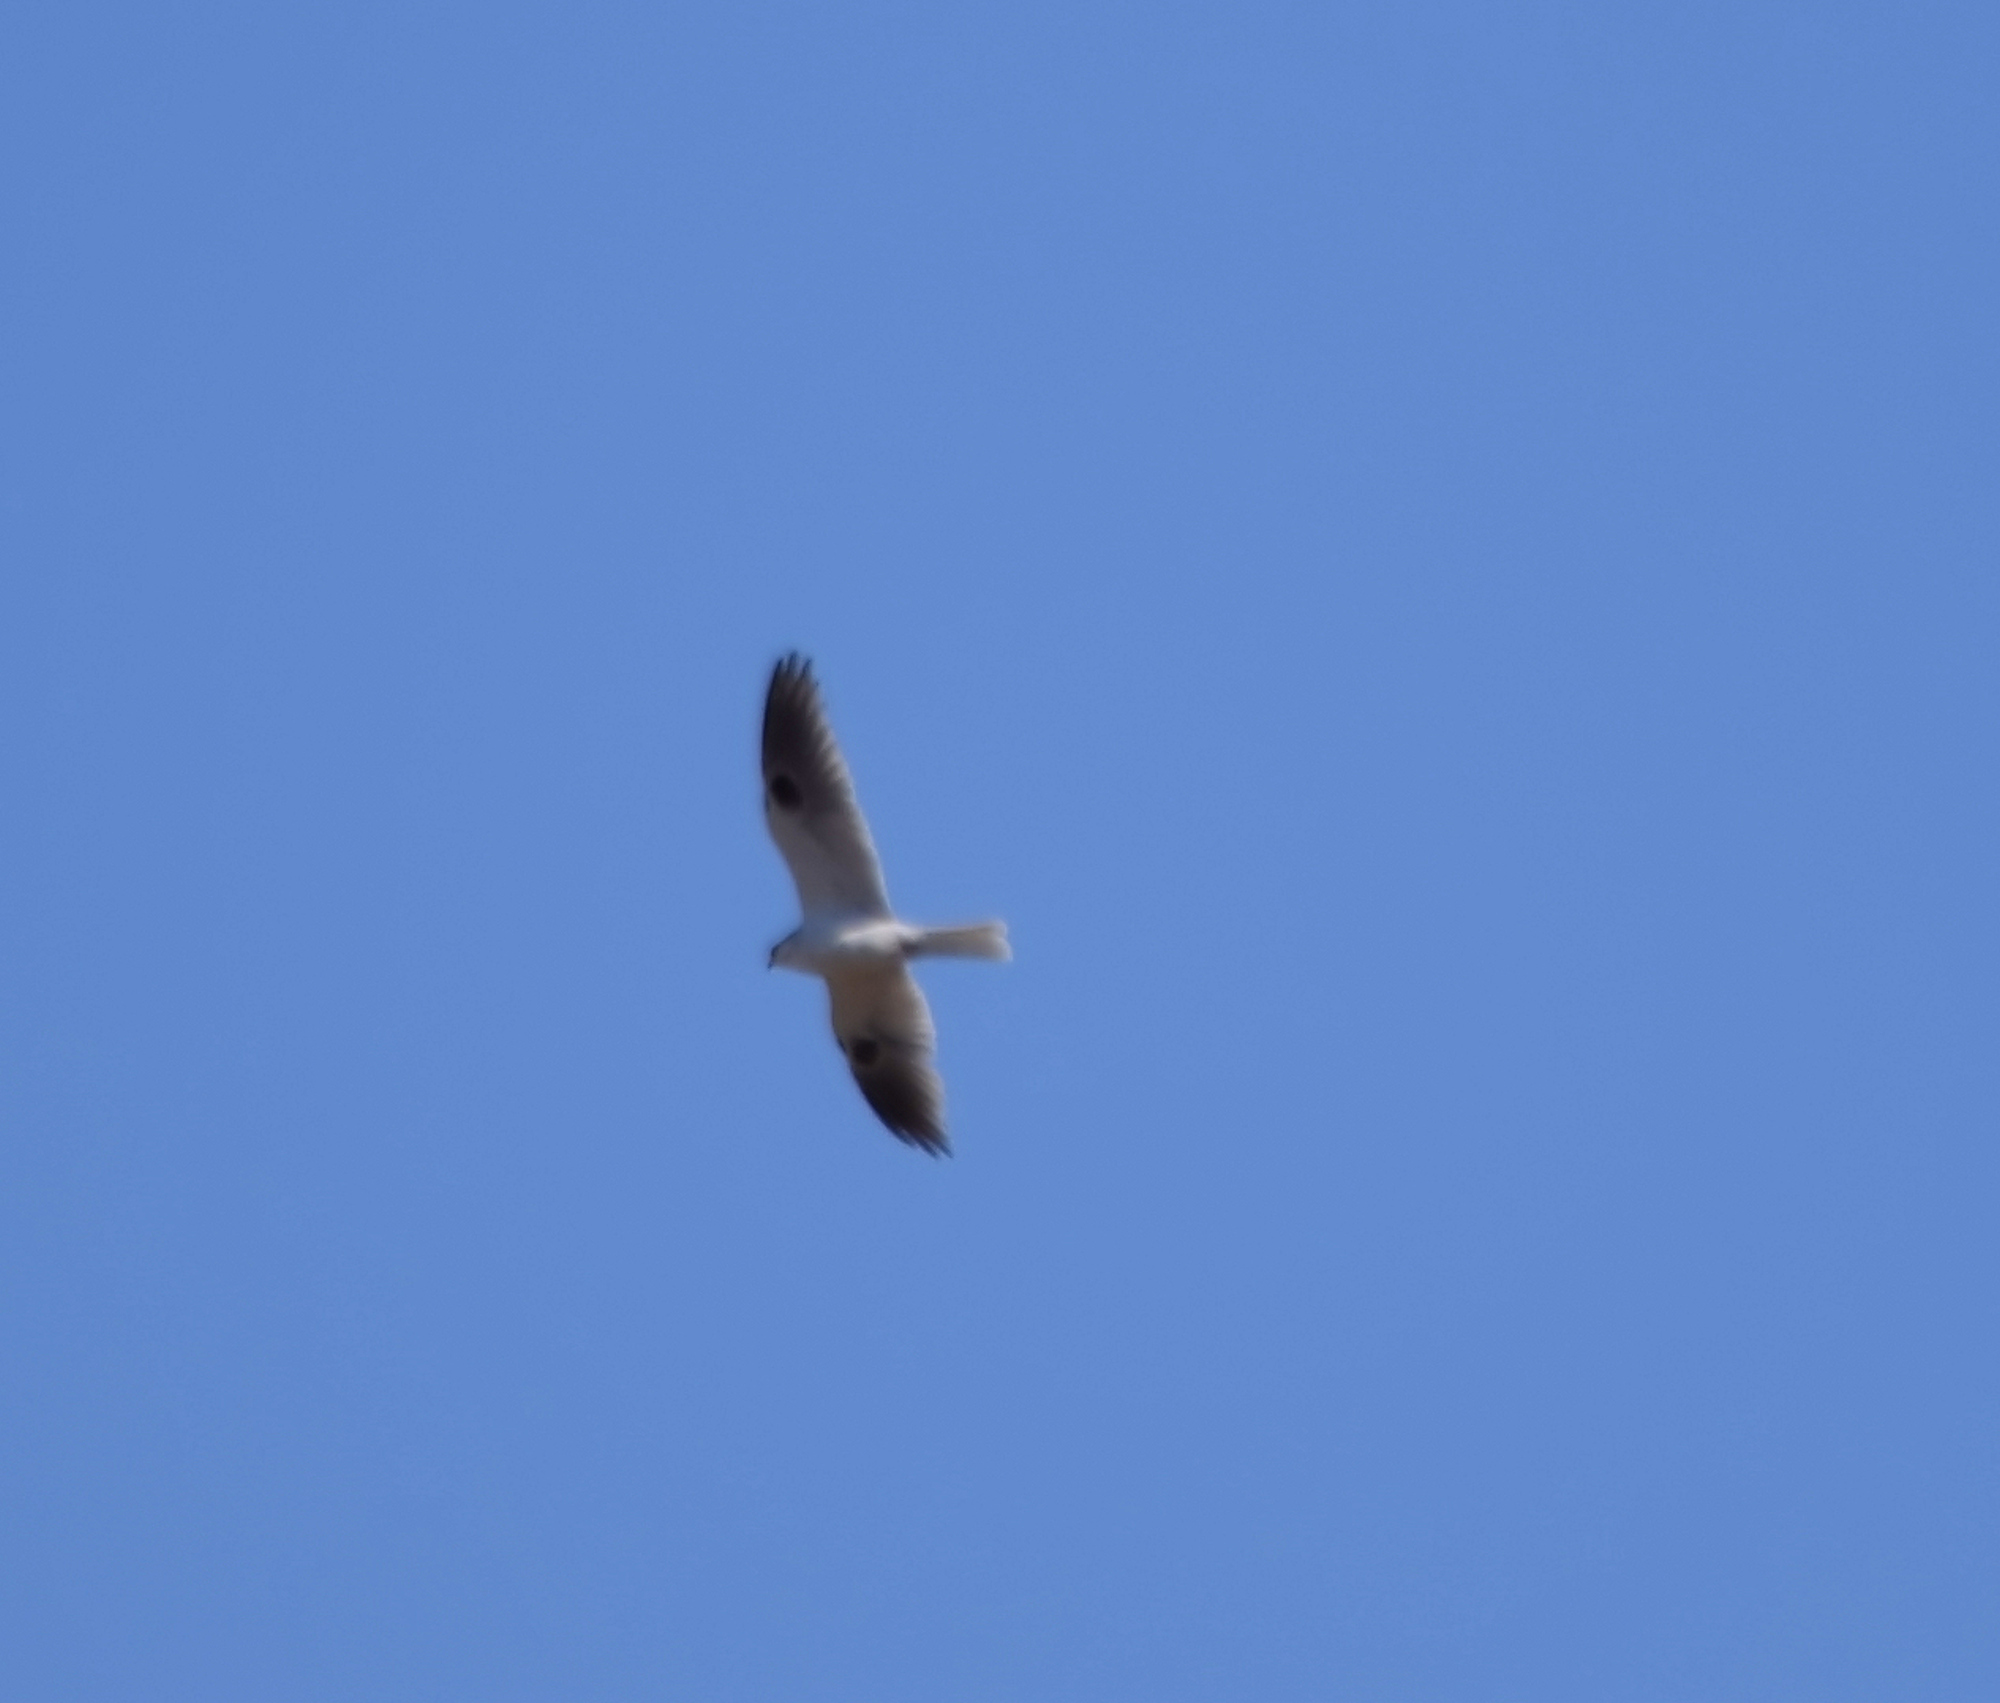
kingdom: Animalia
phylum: Chordata
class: Aves
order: Accipitriformes
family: Accipitridae
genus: Elanus
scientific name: Elanus leucurus
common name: White-tailed kite
